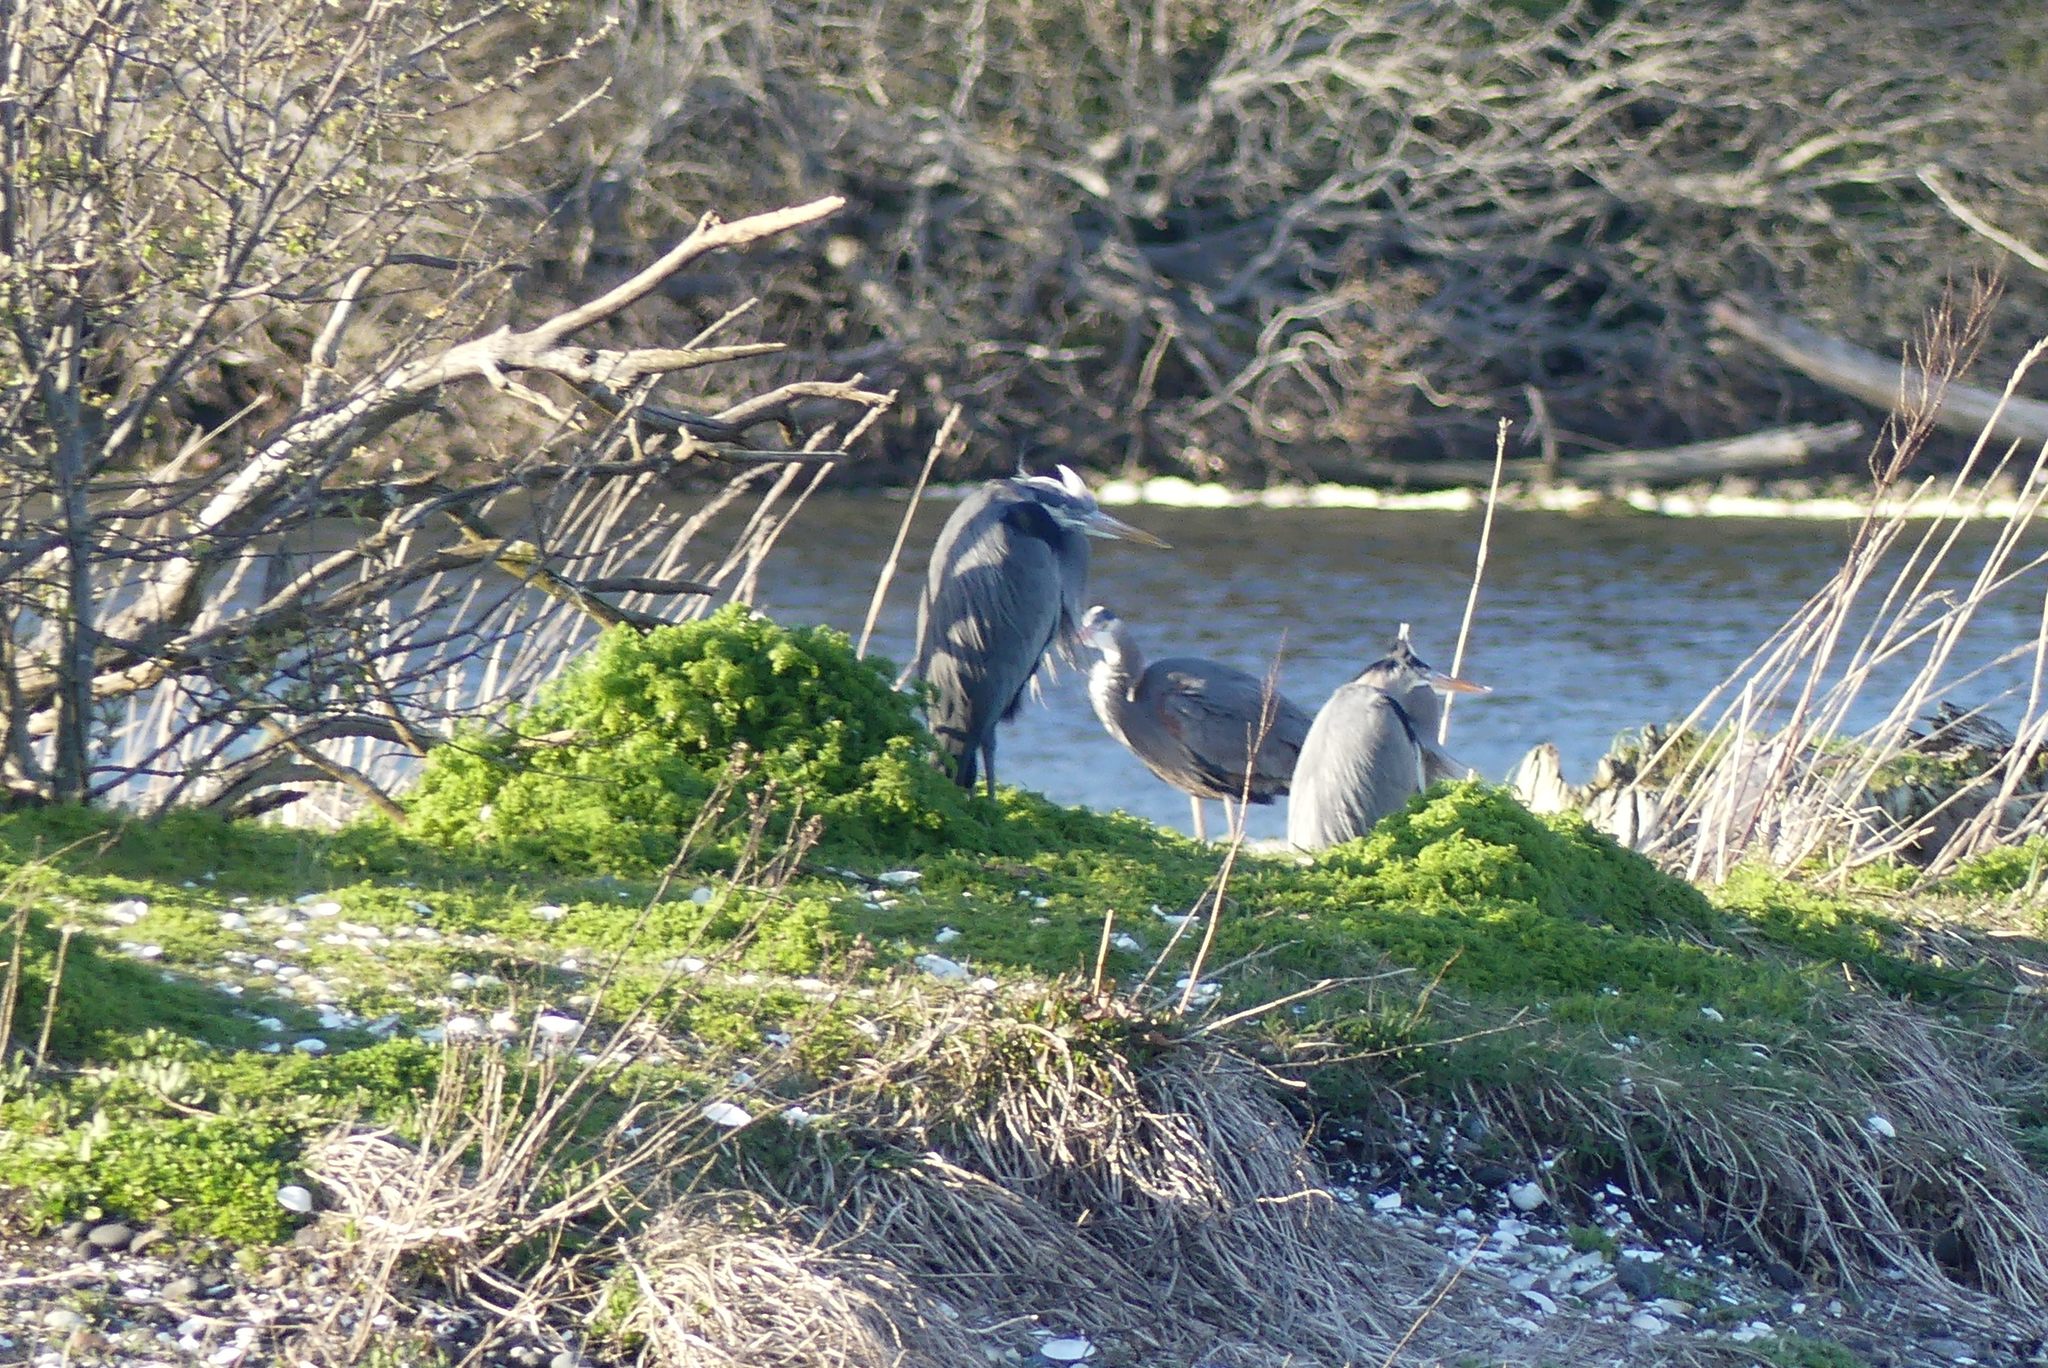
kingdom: Animalia
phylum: Chordata
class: Aves
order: Pelecaniformes
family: Ardeidae
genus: Ardea
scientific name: Ardea herodias
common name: Great blue heron
